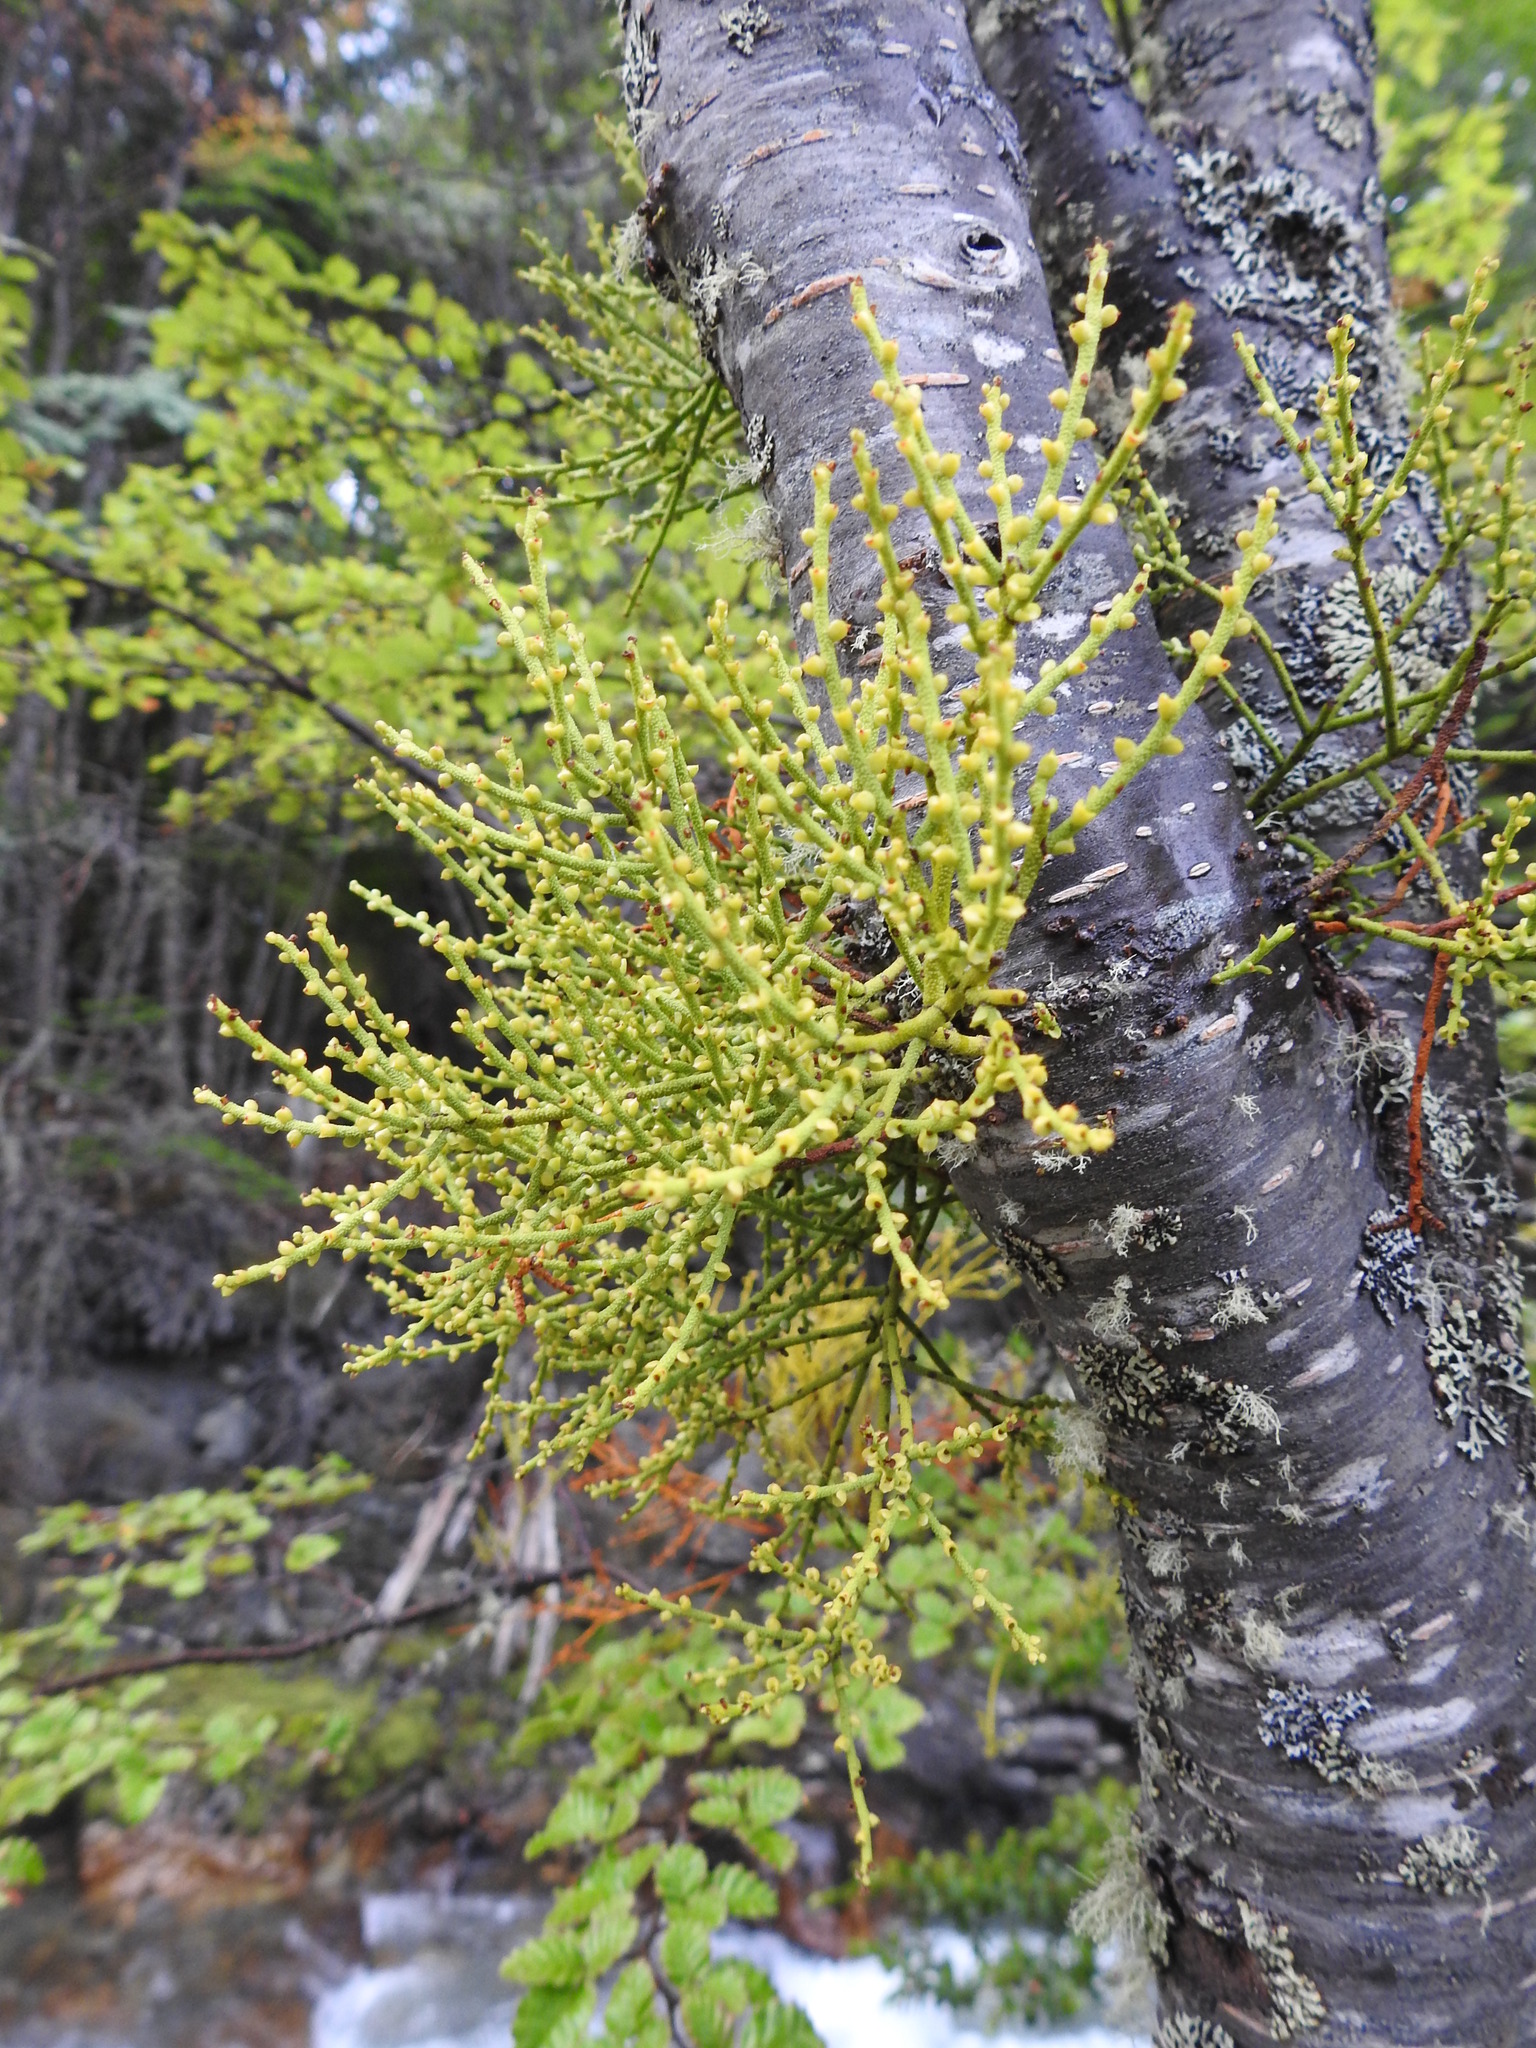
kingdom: Plantae
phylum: Tracheophyta
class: Magnoliopsida
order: Santalales
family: Misodendraceae
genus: Misodendrum
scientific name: Misodendrum punctulatum
